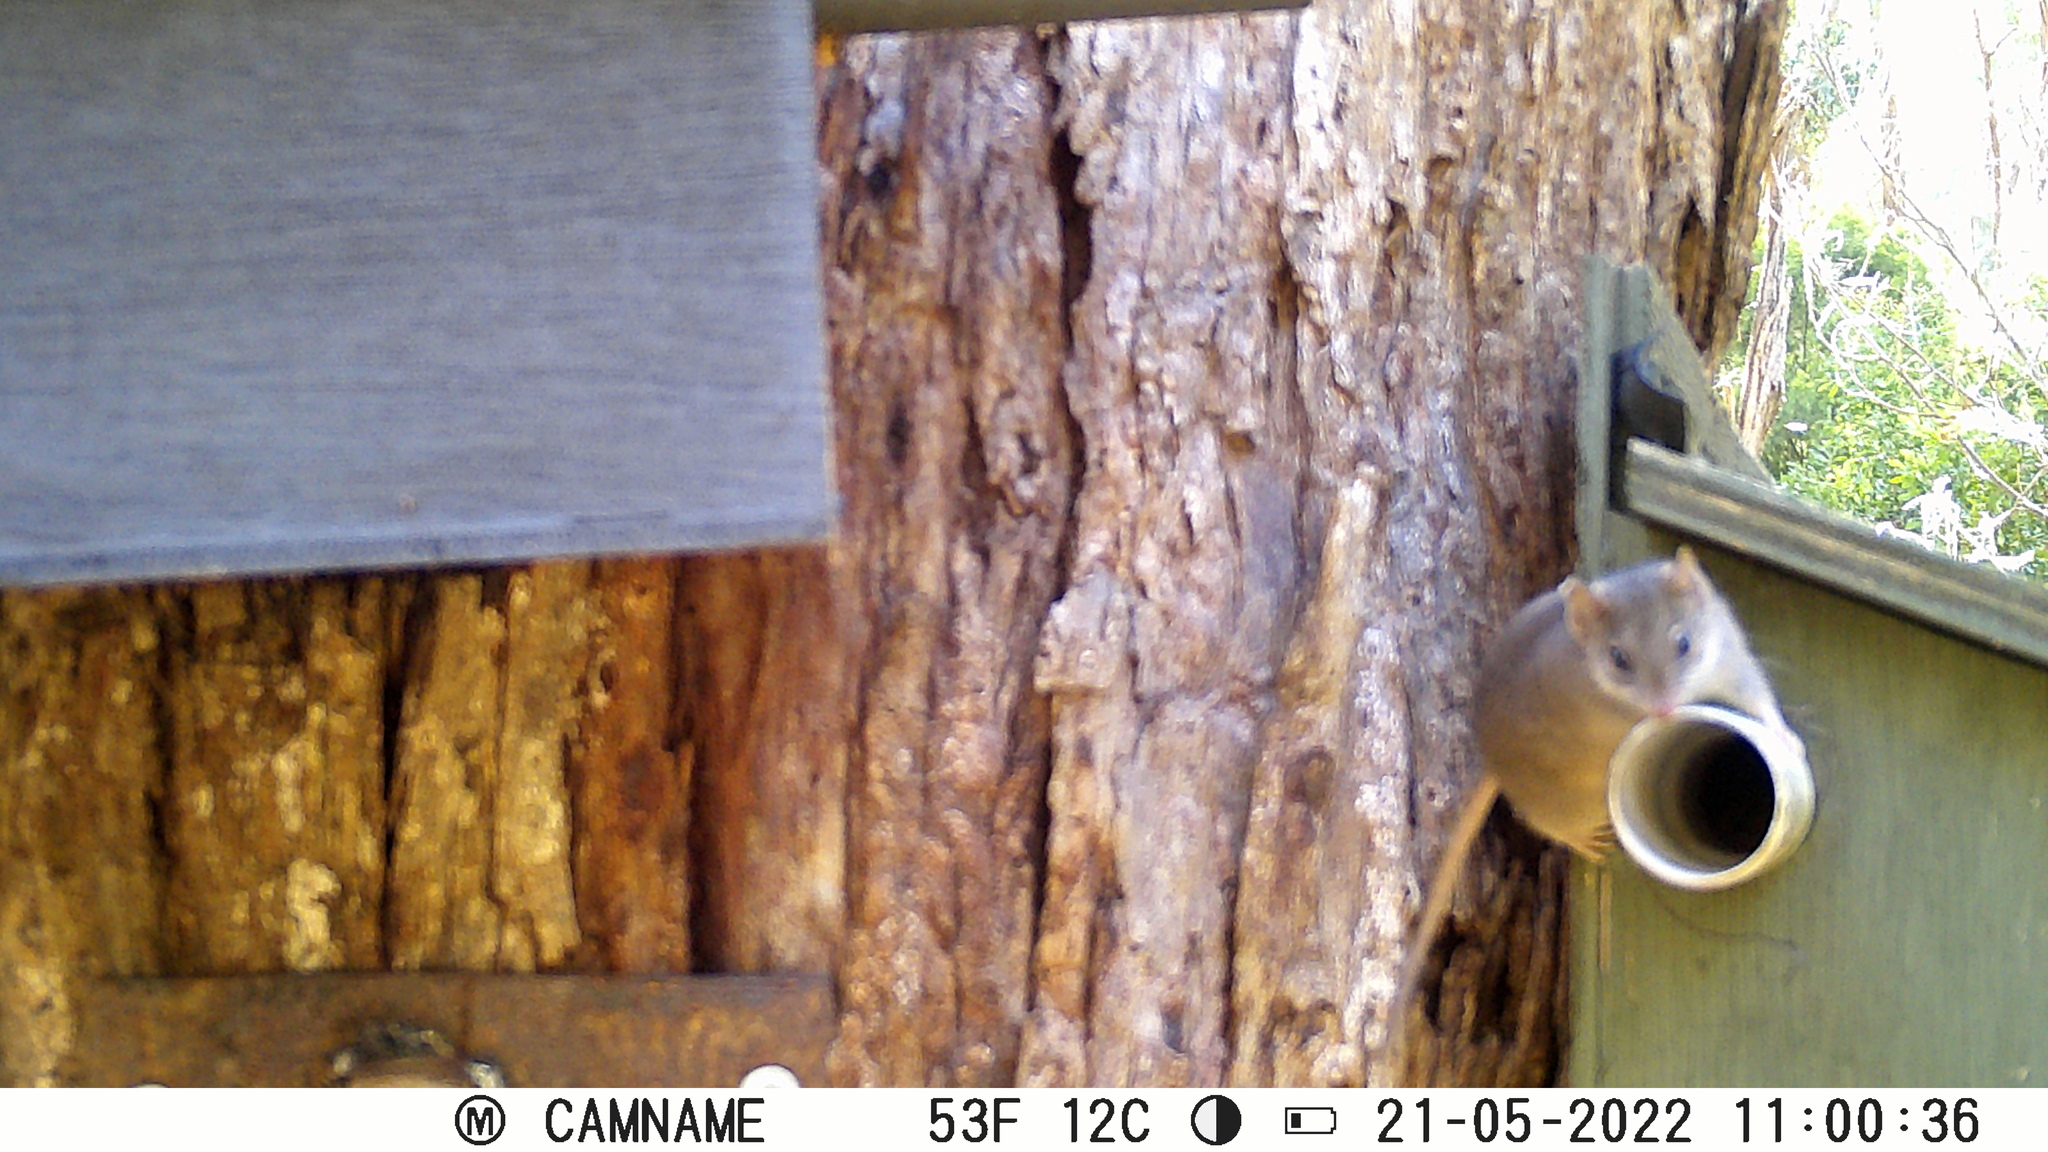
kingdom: Animalia
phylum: Chordata
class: Mammalia
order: Dasyuromorphia
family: Dasyuridae
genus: Antechinus
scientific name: Antechinus agilis
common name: Agile antechinus
